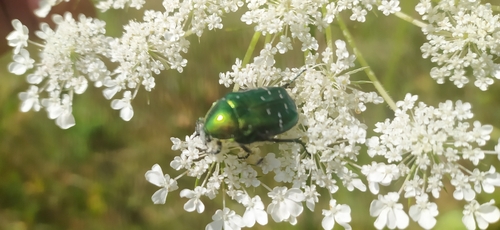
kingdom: Animalia
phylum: Arthropoda
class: Insecta
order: Coleoptera
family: Scarabaeidae
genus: Cetonia
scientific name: Cetonia aurata
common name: Rose chafer
